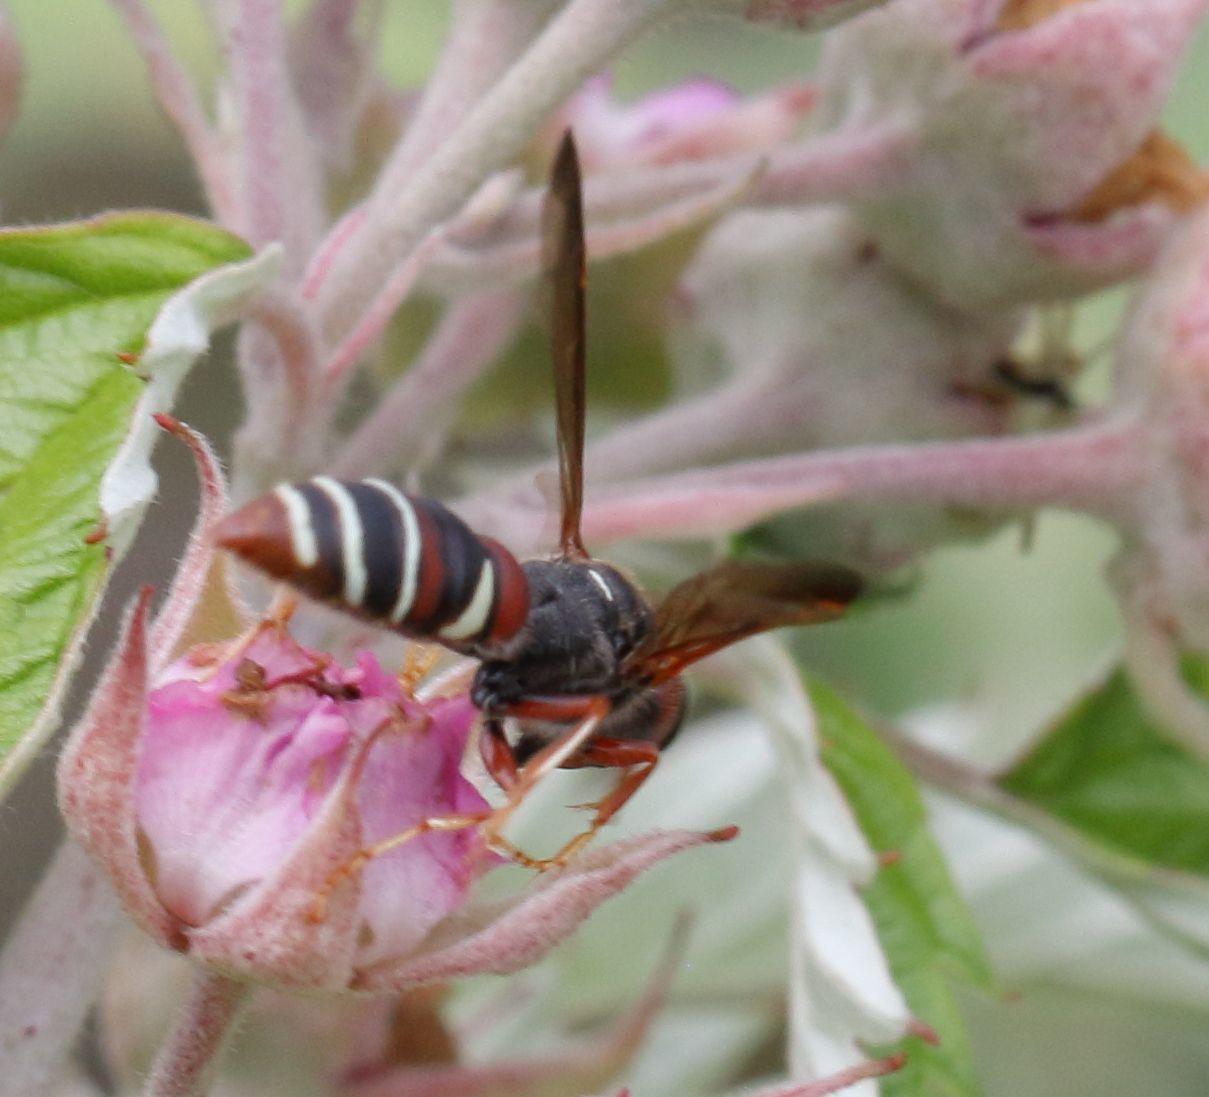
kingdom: Animalia
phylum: Arthropoda
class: Insecta
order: Hymenoptera
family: Crabronidae
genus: Philanthus
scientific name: Philanthus histrio
